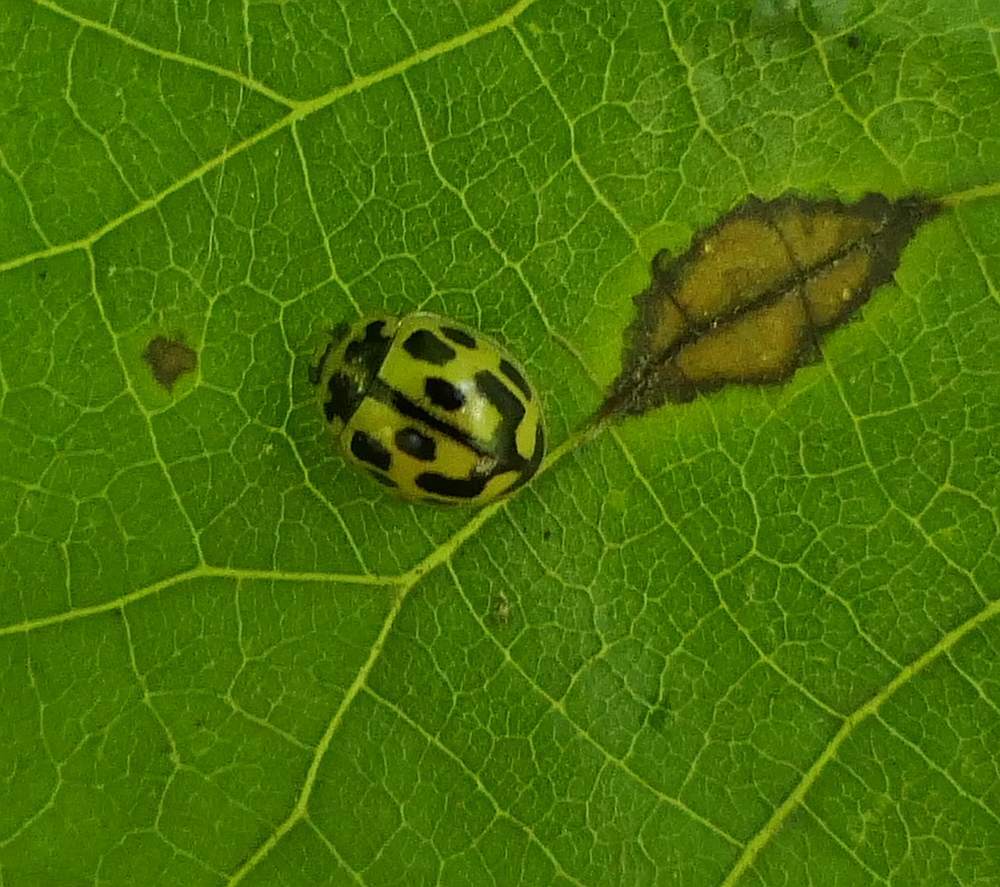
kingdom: Animalia
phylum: Arthropoda
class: Insecta
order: Coleoptera
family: Coccinellidae
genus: Propylaea
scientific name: Propylaea quatuordecimpunctata
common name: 14-spotted ladybird beetle
